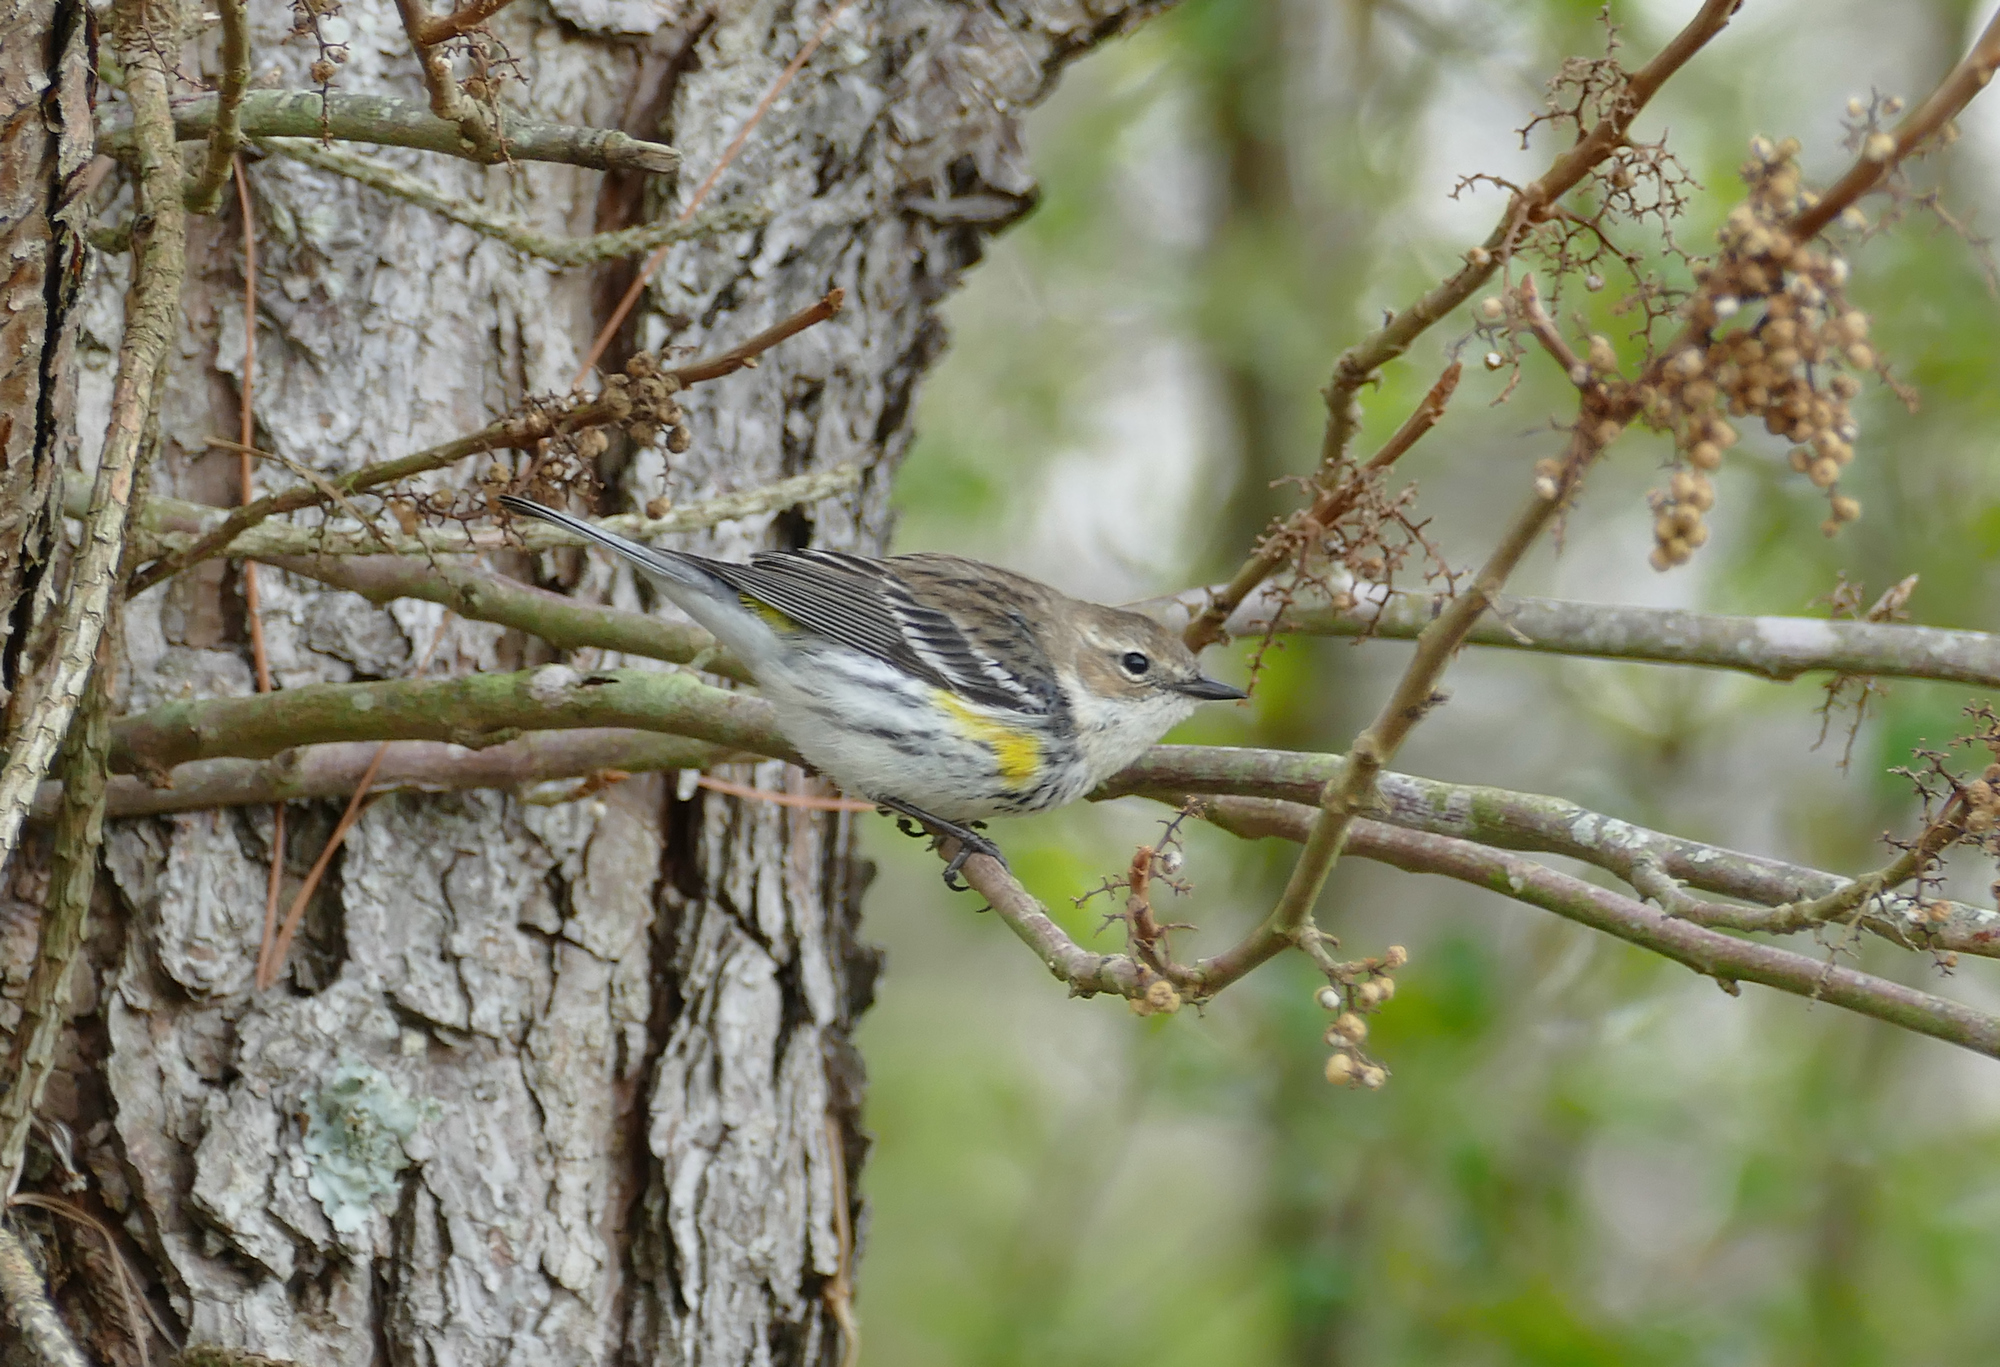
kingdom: Animalia
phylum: Chordata
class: Aves
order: Passeriformes
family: Parulidae
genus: Setophaga
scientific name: Setophaga coronata
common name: Myrtle warbler
